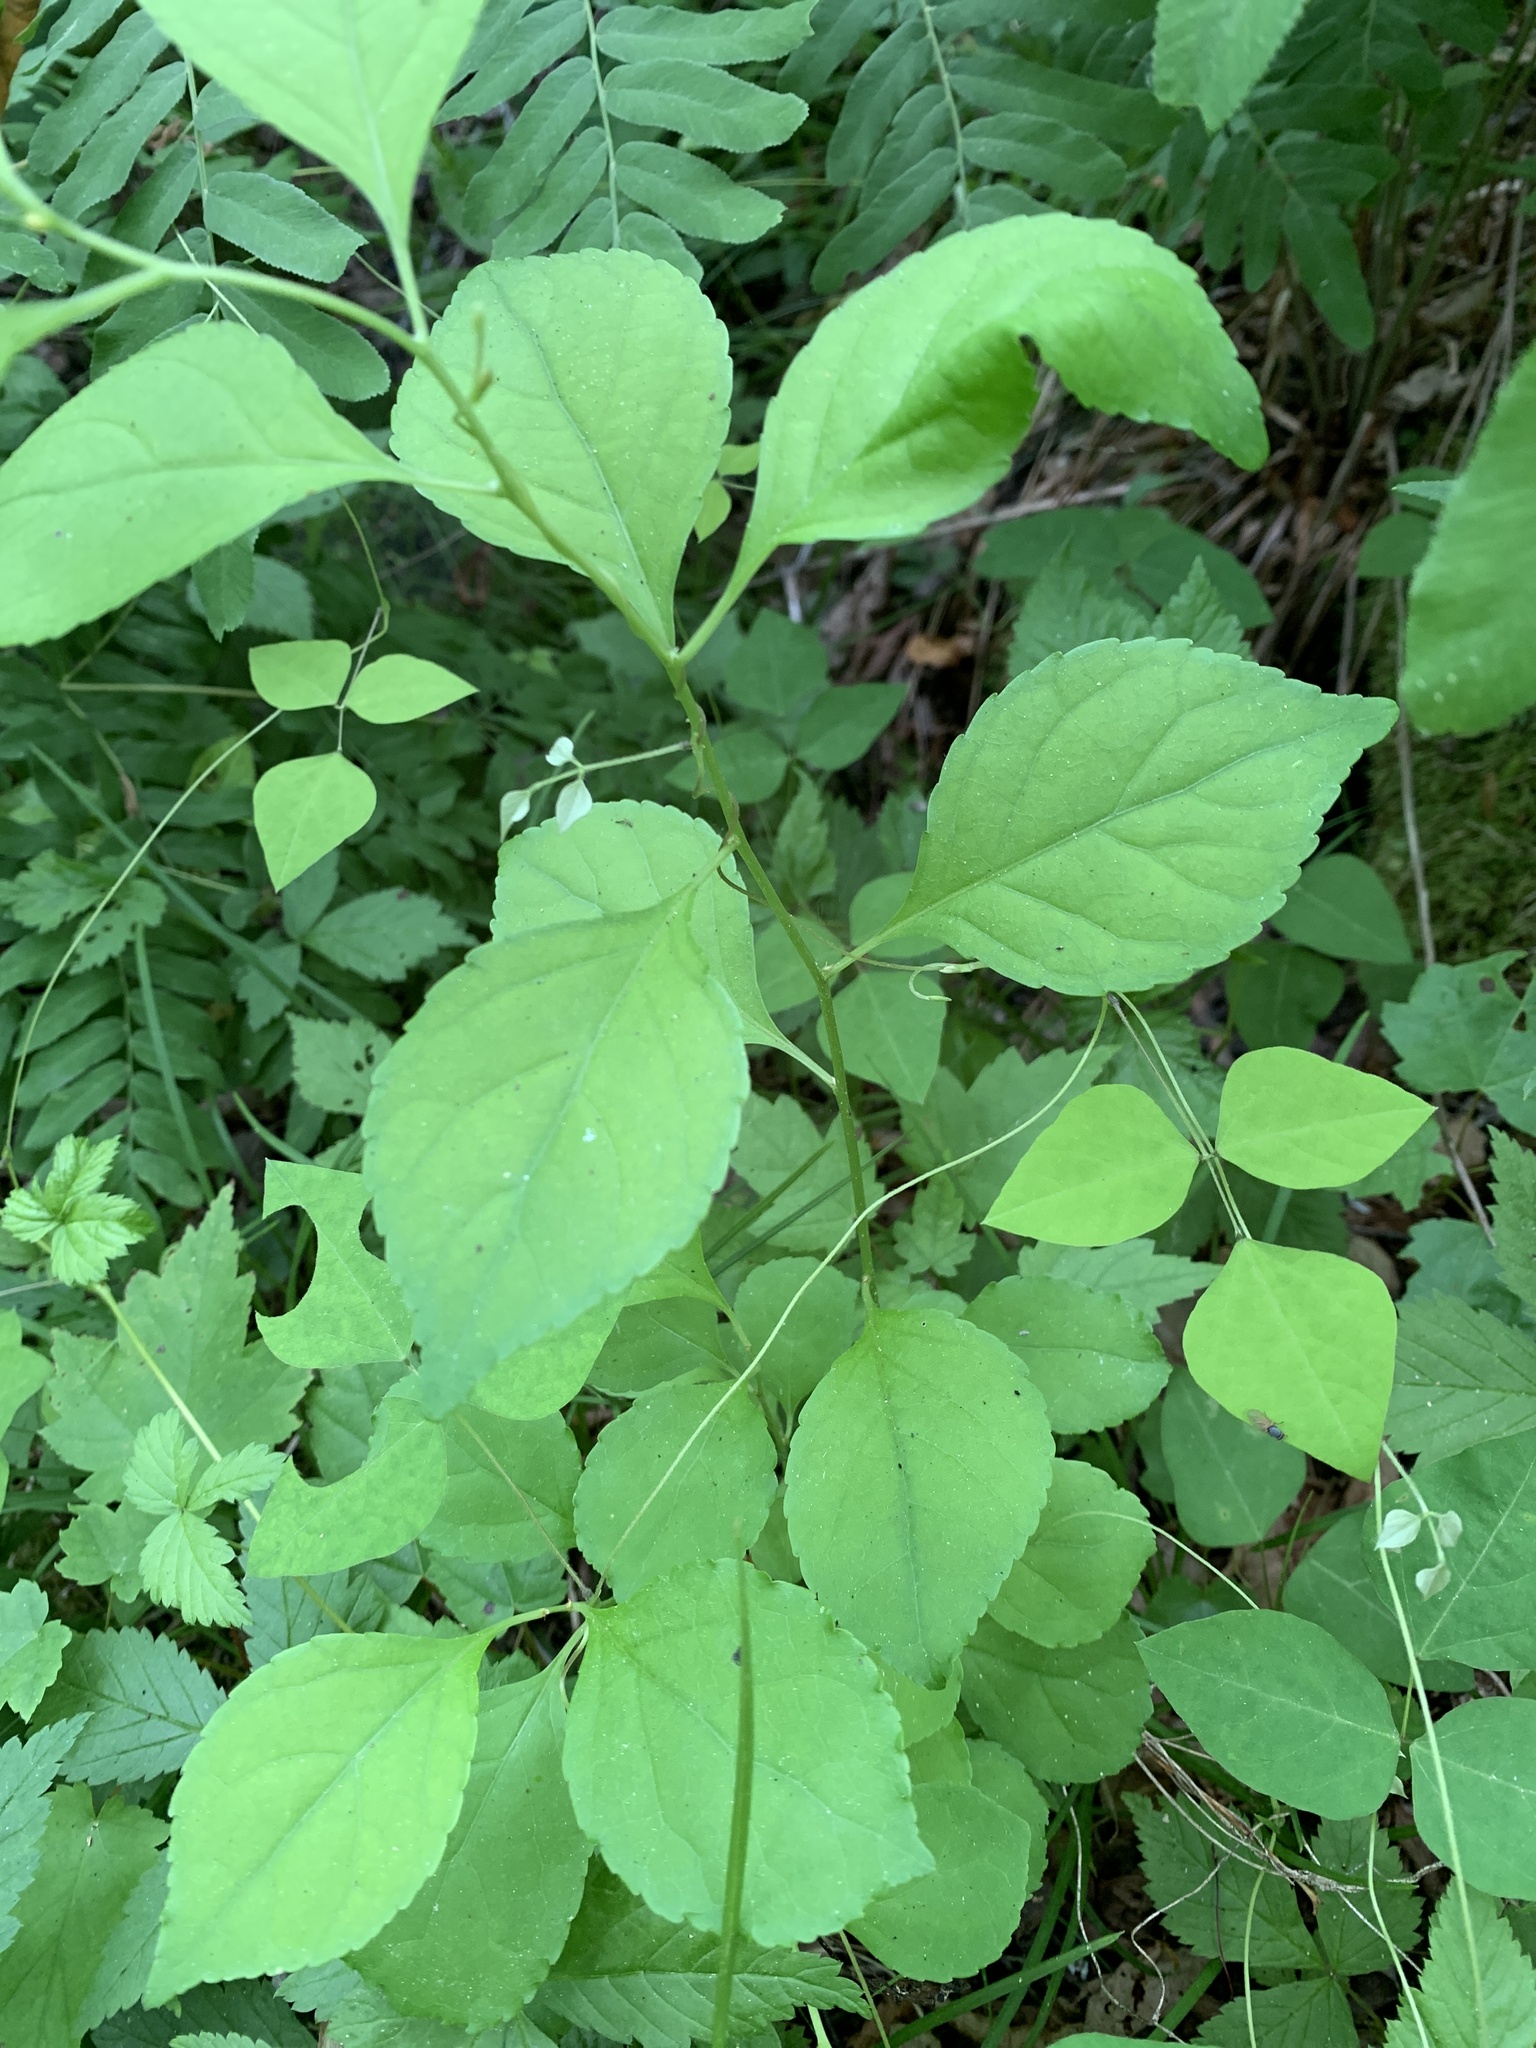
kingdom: Plantae
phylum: Tracheophyta
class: Magnoliopsida
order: Celastrales
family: Celastraceae
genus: Celastrus
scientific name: Celastrus orbiculatus
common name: Oriental bittersweet
